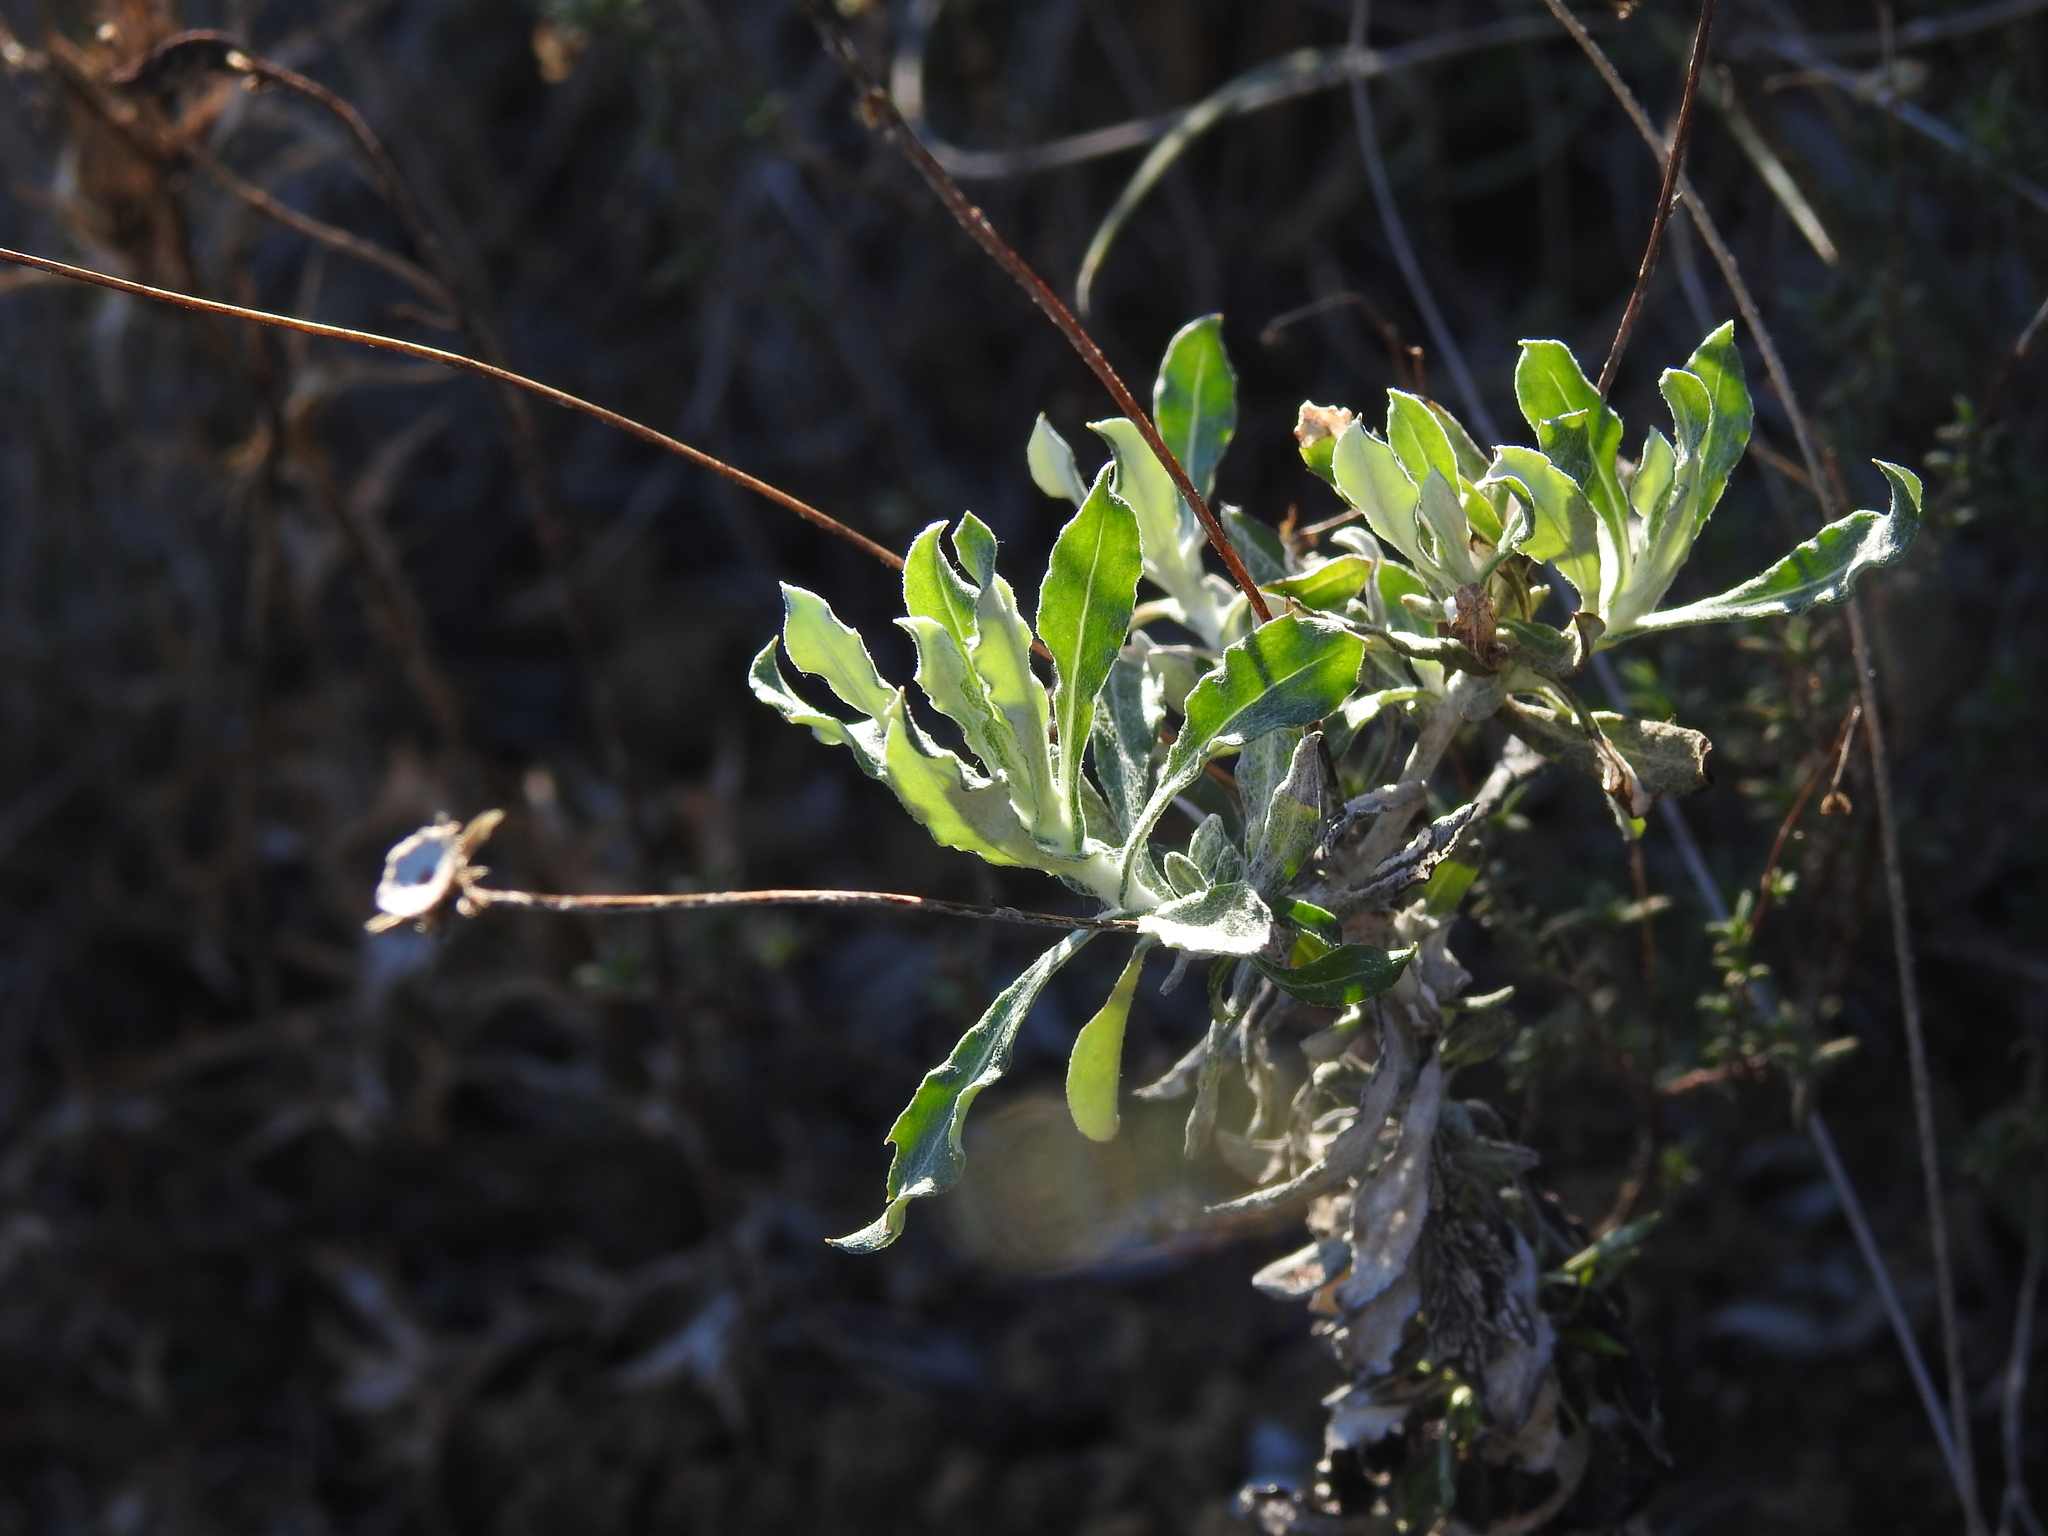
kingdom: Plantae
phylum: Tracheophyta
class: Magnoliopsida
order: Asterales
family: Asteraceae
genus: Phagnalon
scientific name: Phagnalon rupestre
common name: Rock phagnalon
